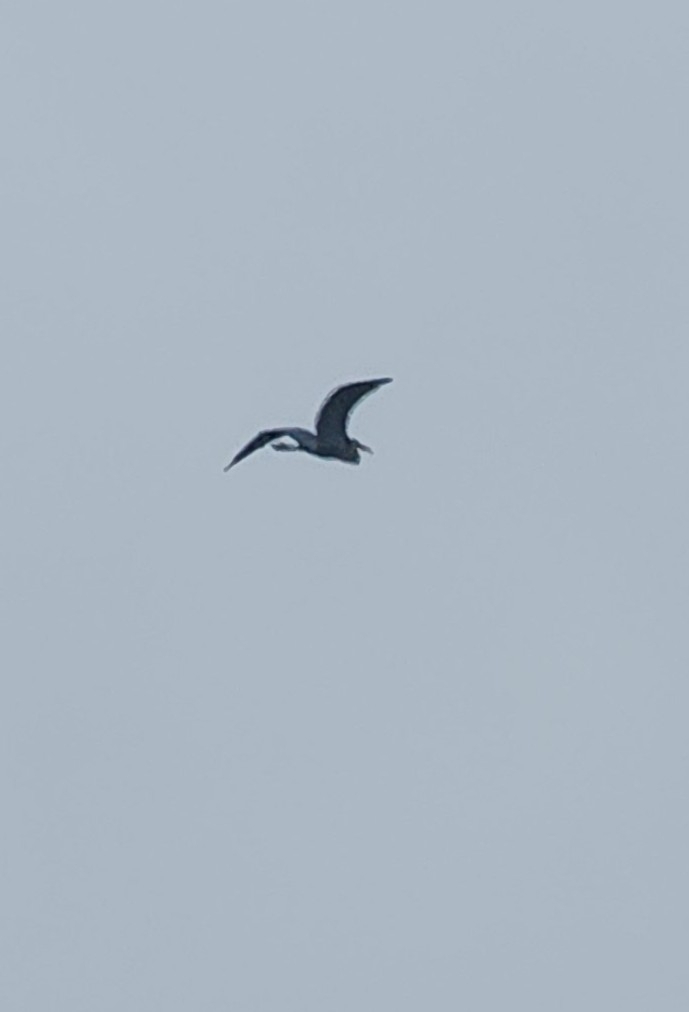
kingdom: Animalia
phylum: Chordata
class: Aves
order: Pelecaniformes
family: Ardeidae
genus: Ardea
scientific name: Ardea herodias
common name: Great blue heron
